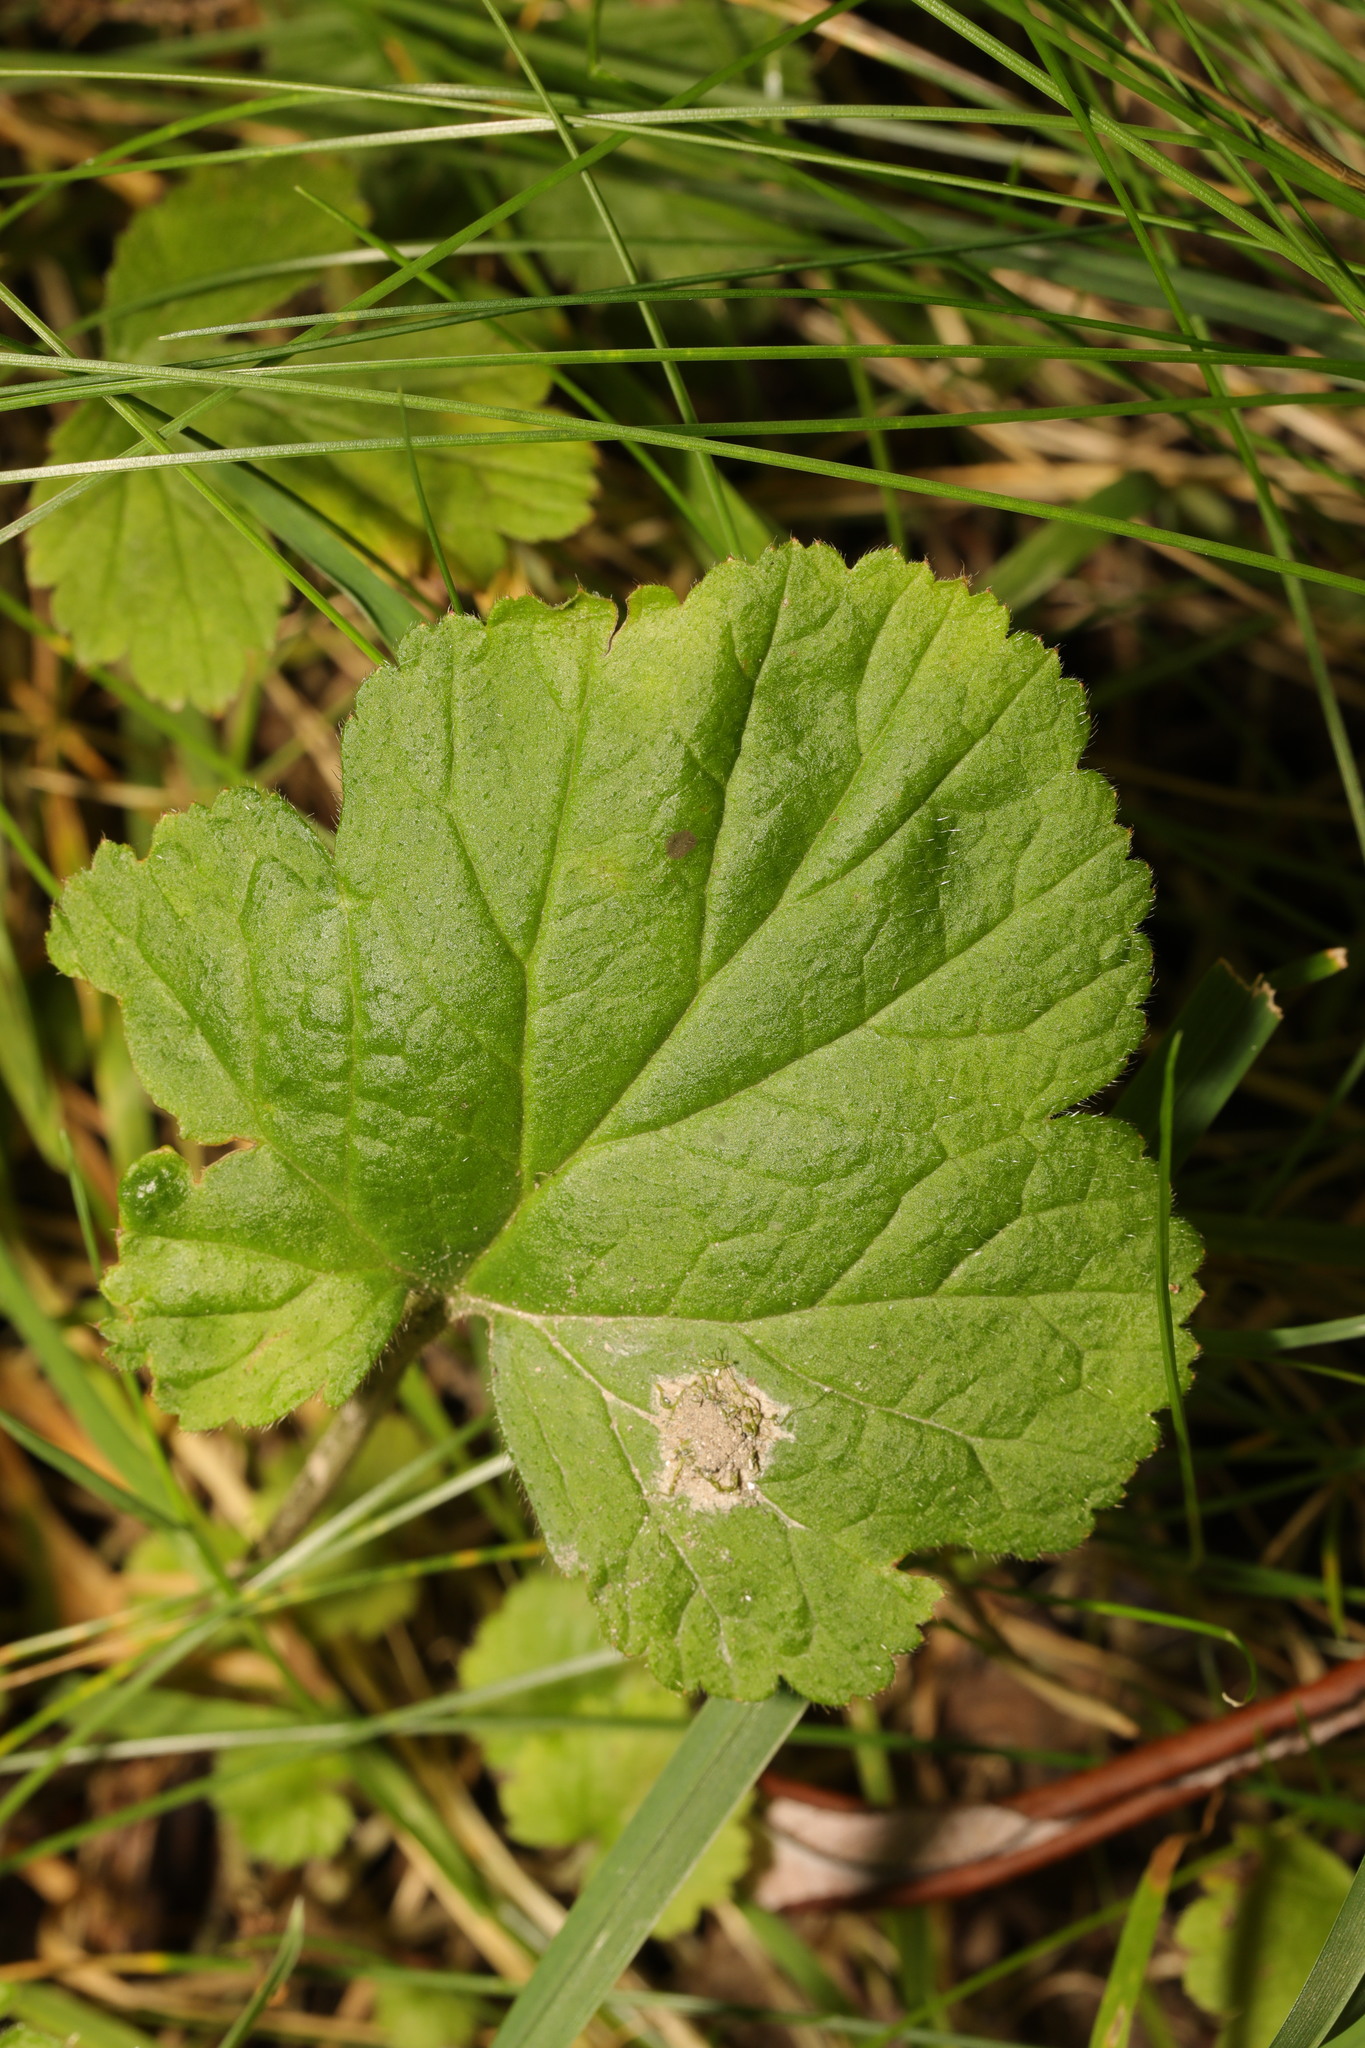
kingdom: Plantae
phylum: Tracheophyta
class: Magnoliopsida
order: Rosales
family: Rosaceae
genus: Geum
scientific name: Geum urbanum
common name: Wood avens
